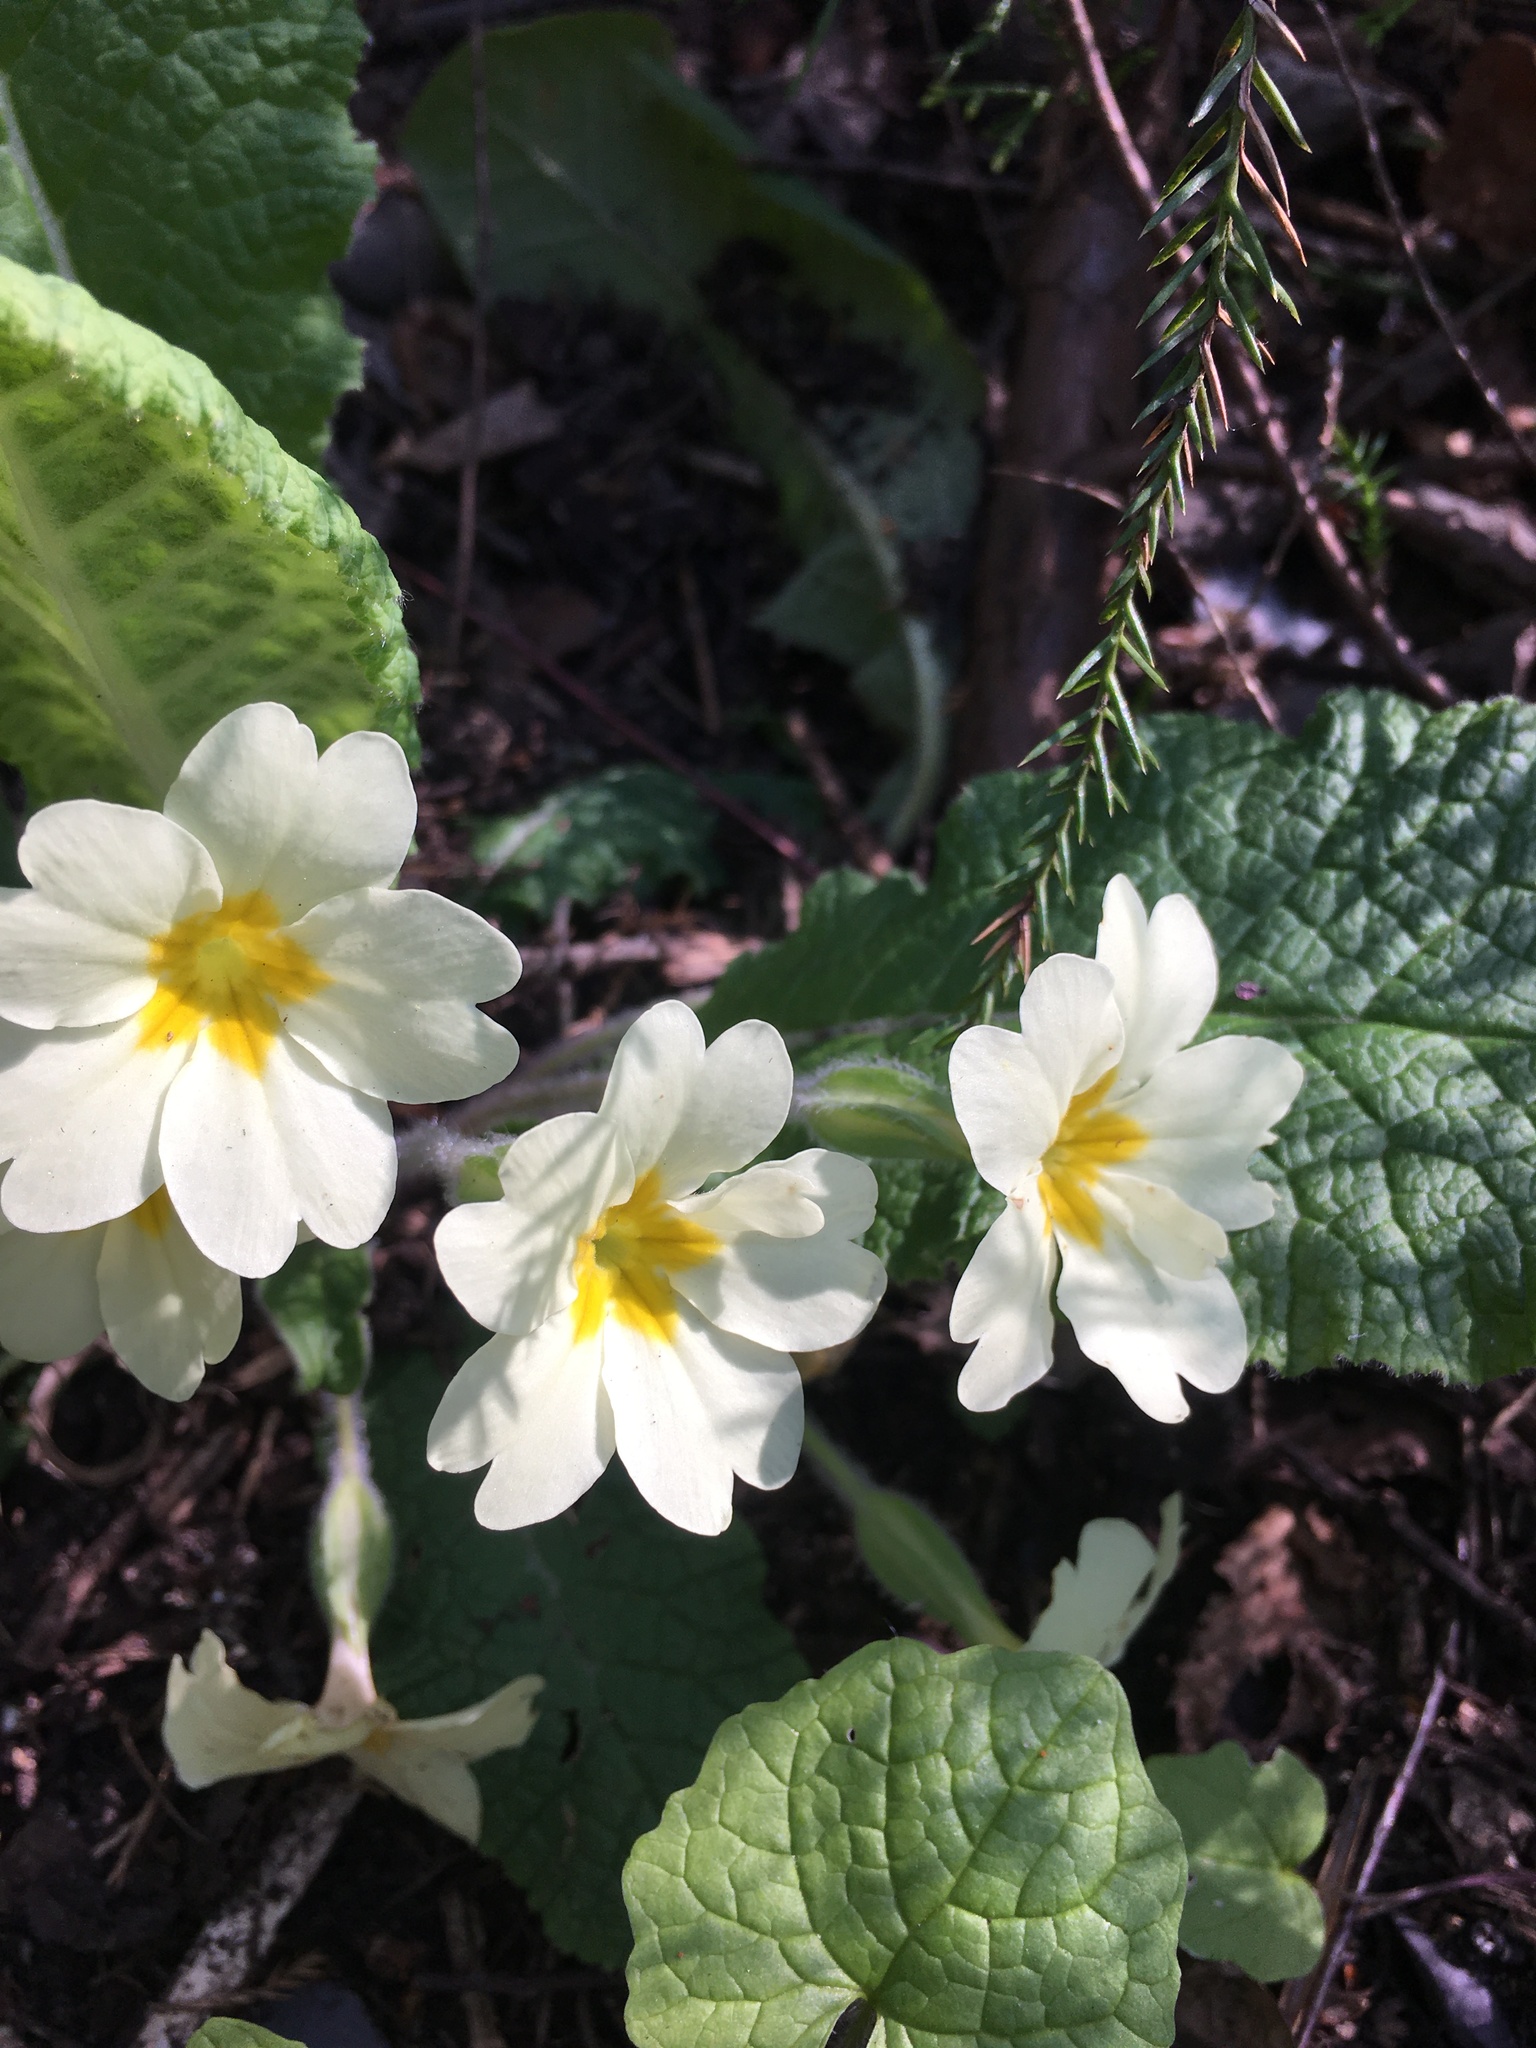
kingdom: Plantae
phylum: Tracheophyta
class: Magnoliopsida
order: Ericales
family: Primulaceae
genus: Primula
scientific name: Primula vulgaris
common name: Primrose
